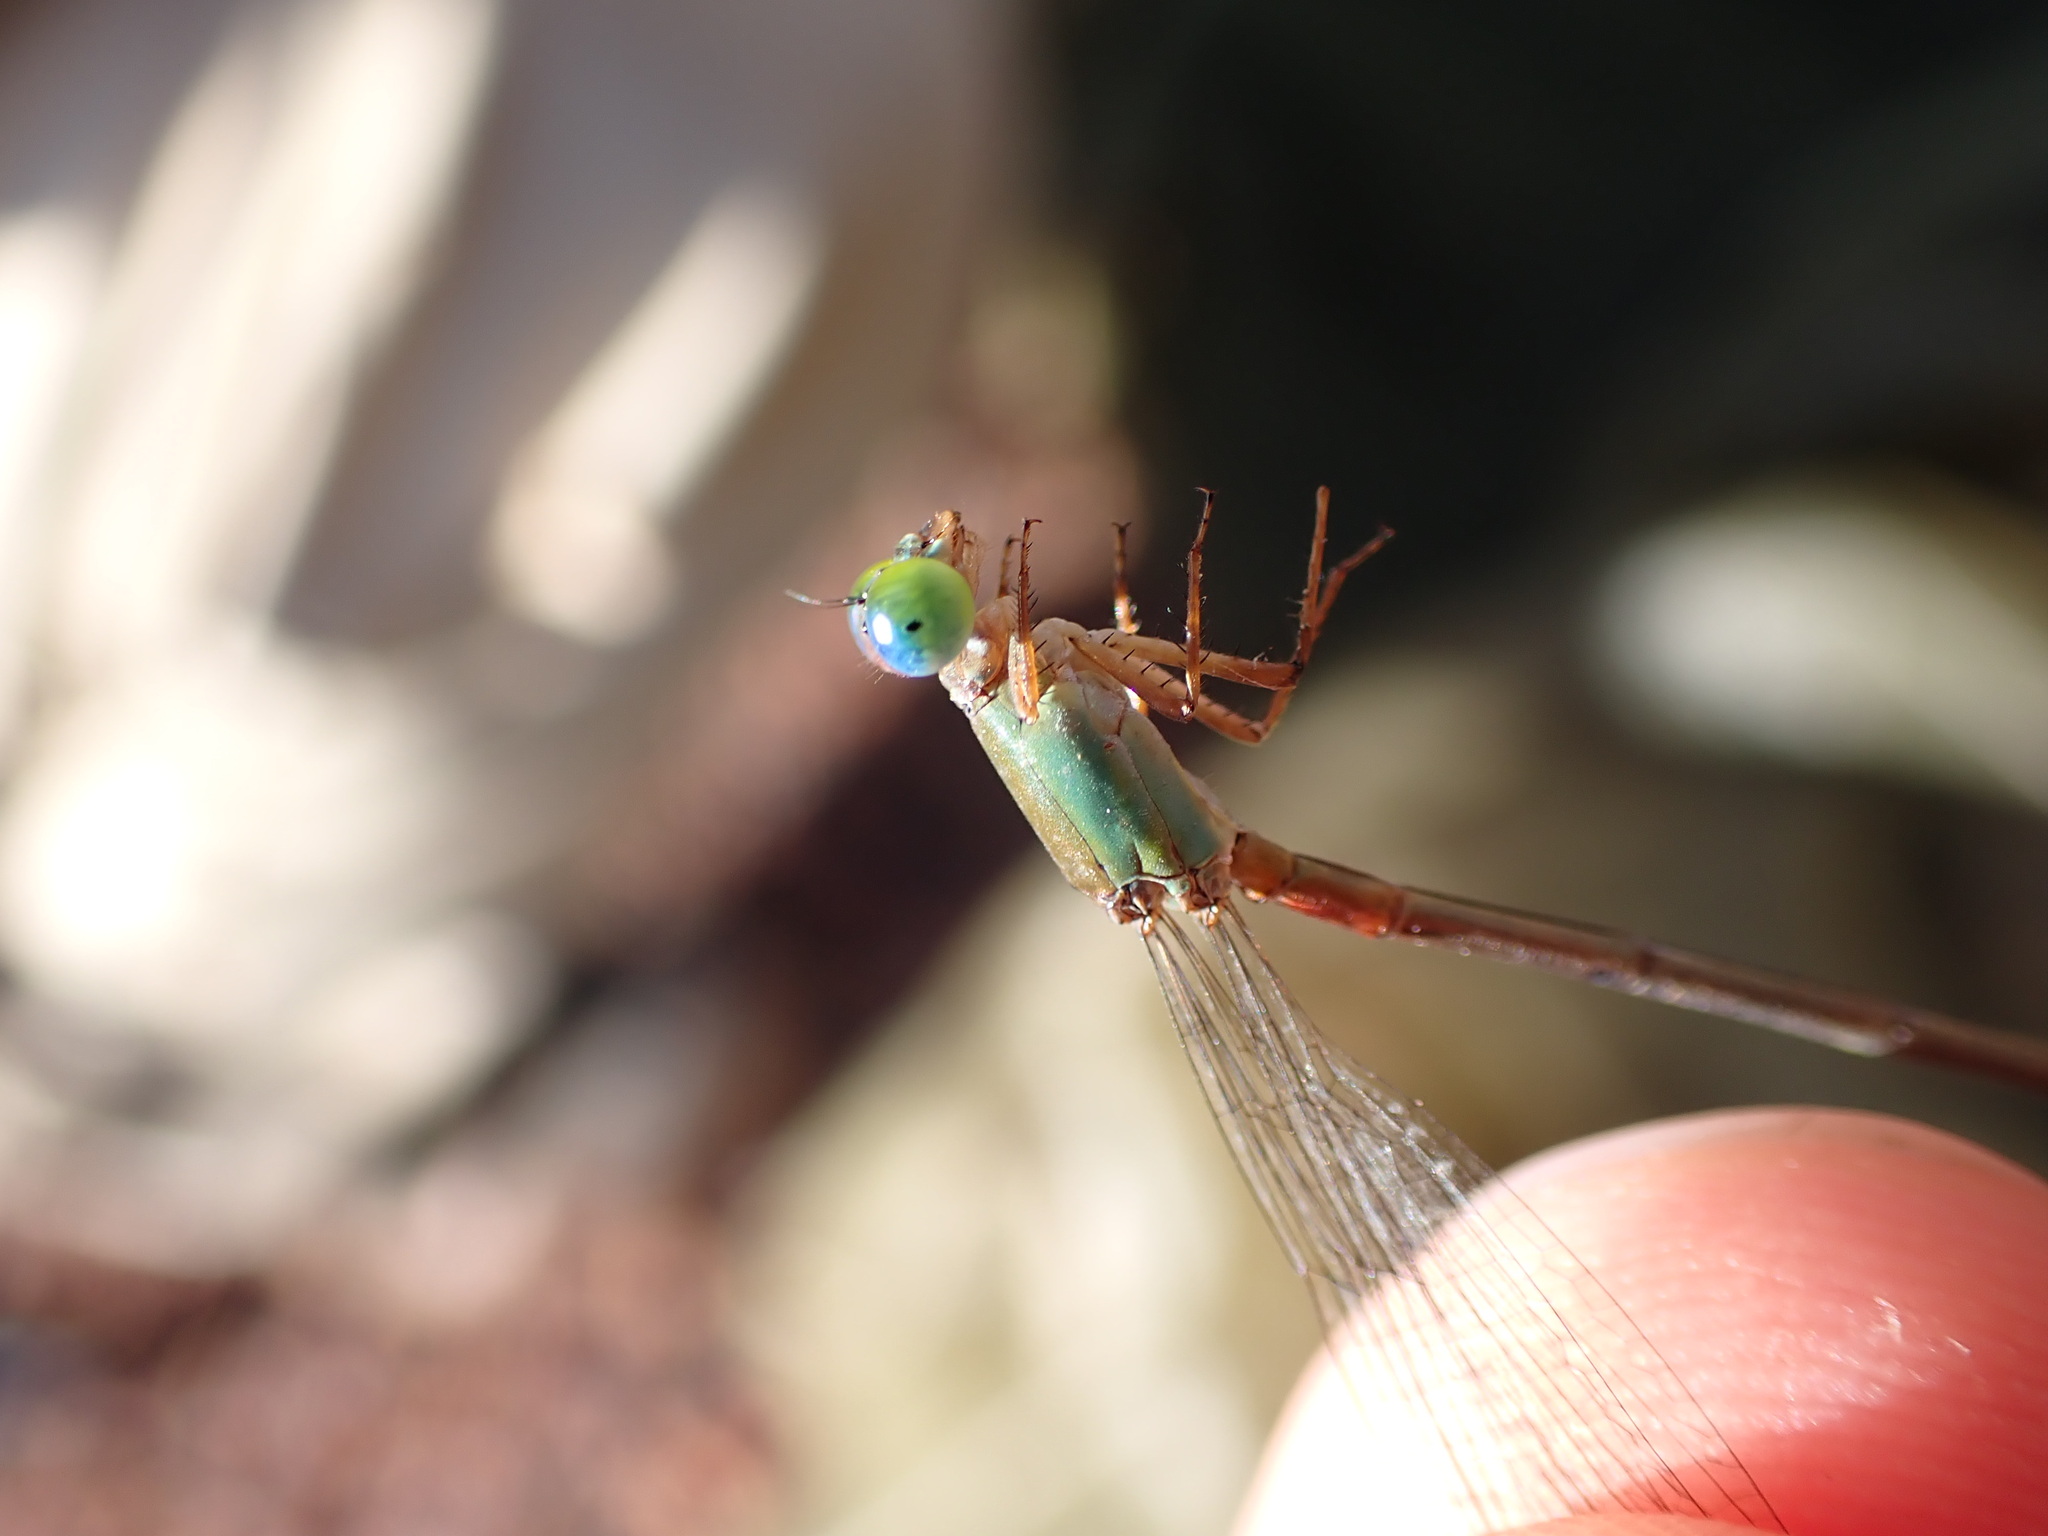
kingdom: Animalia
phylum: Arthropoda
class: Insecta
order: Odonata
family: Coenagrionidae
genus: Ceriagrion
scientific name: Ceriagrion cerinorubellum
